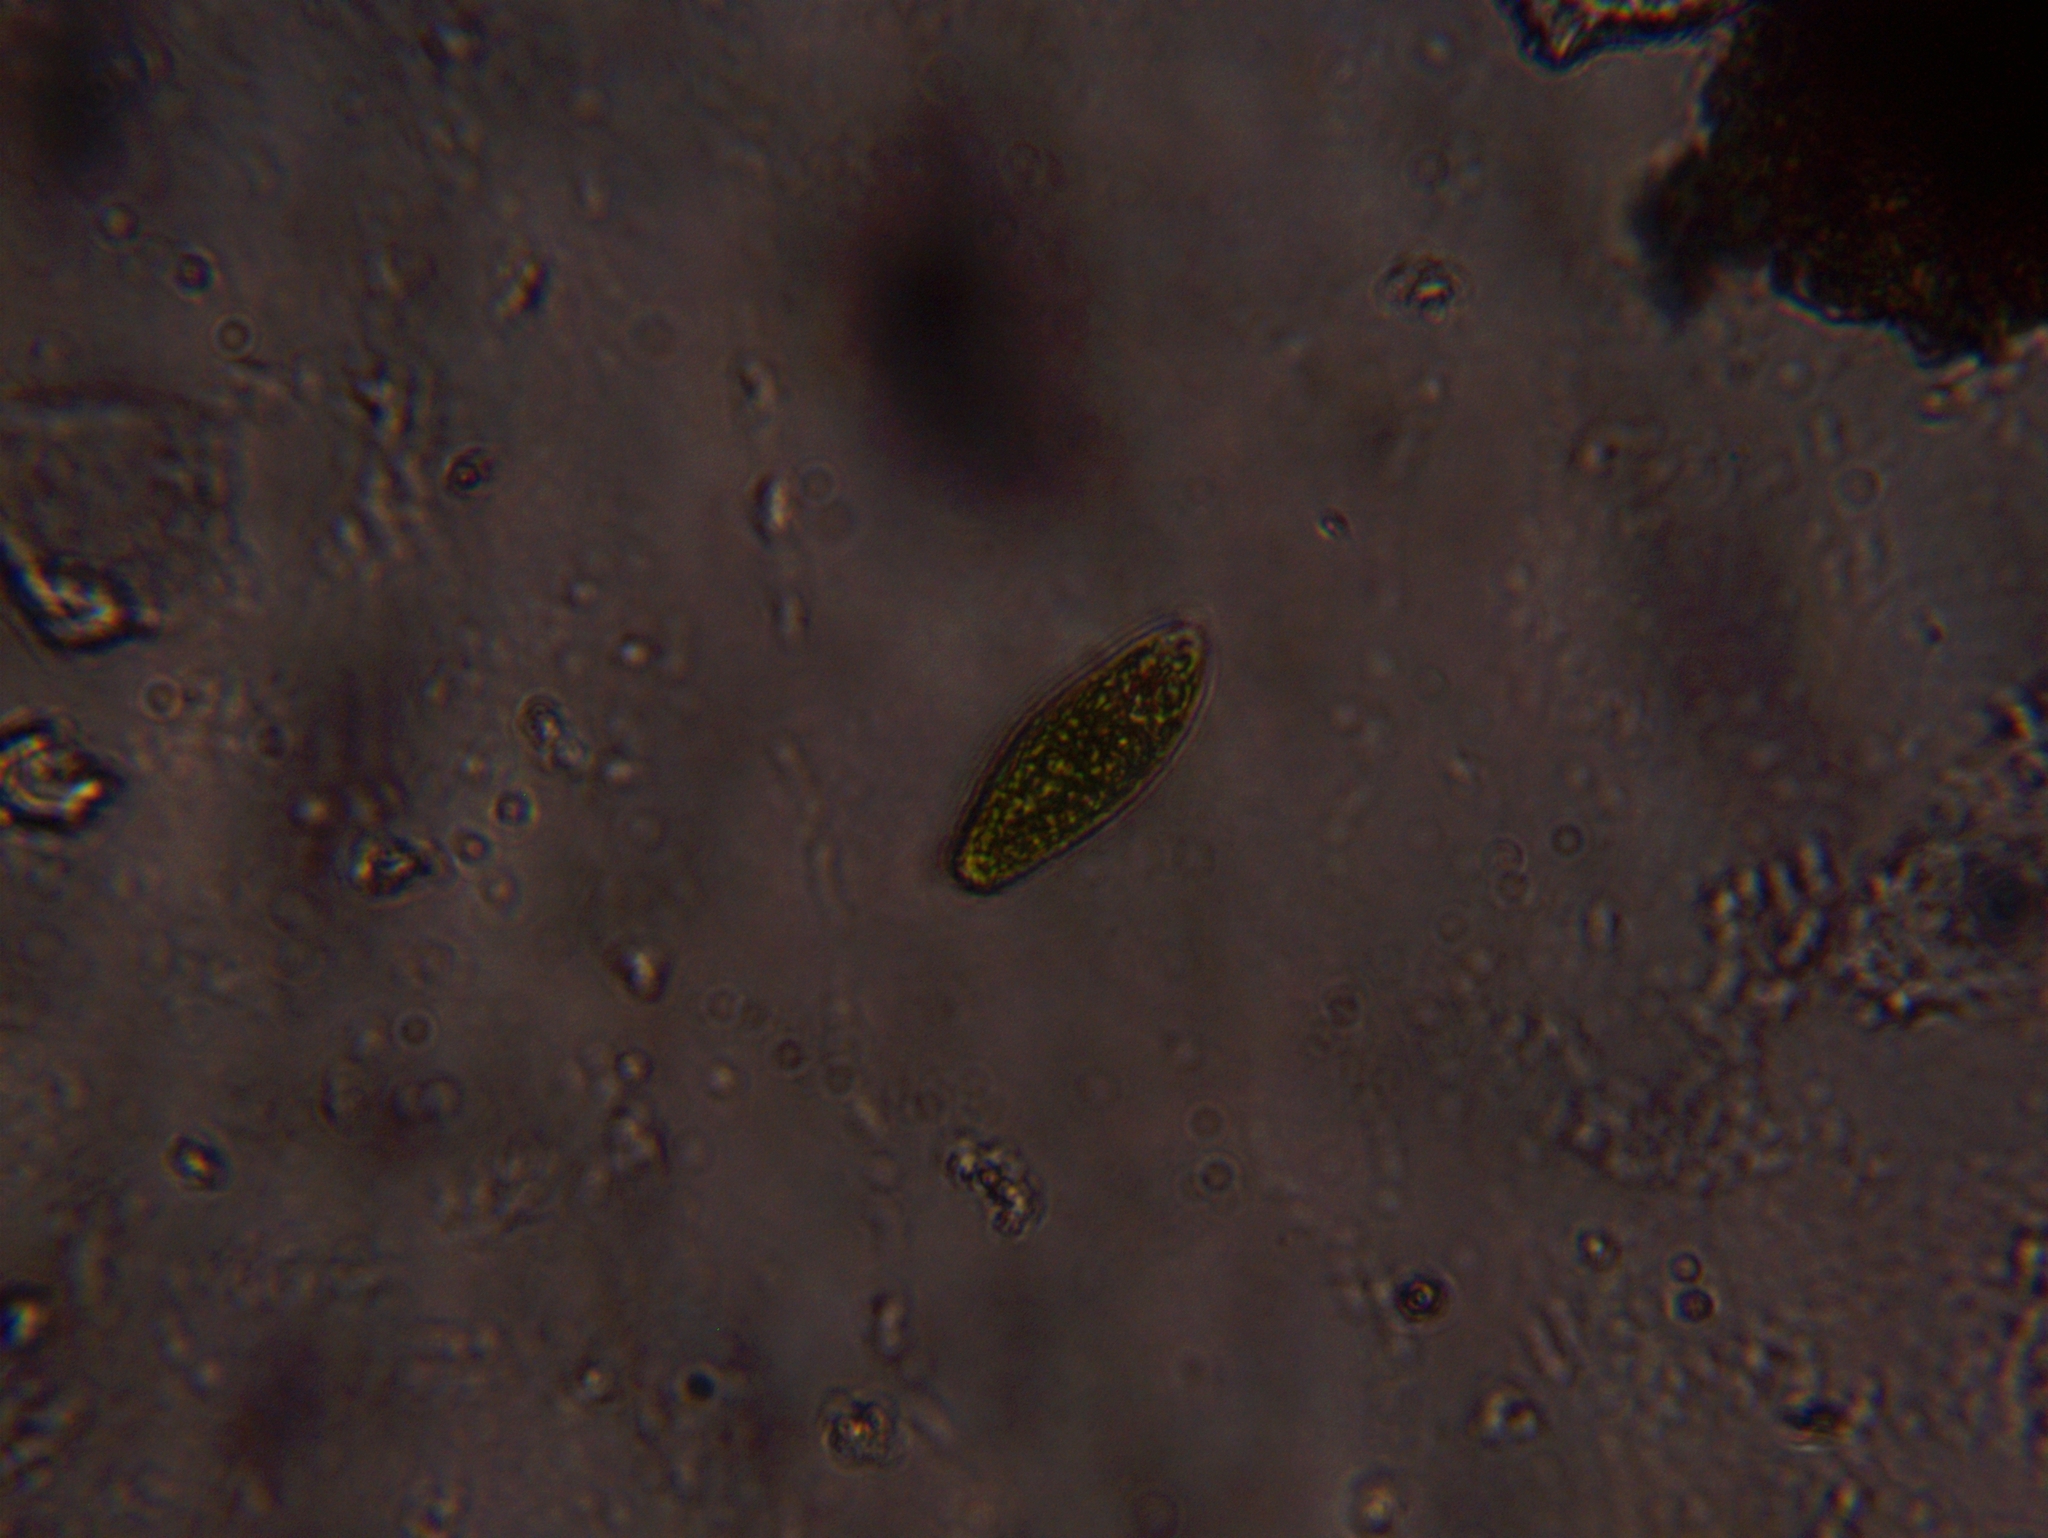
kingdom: Protozoa
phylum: Euglenozoa
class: Euglenoidea
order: Euglenida
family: Euglenaceae
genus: Euglena
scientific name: Euglena
